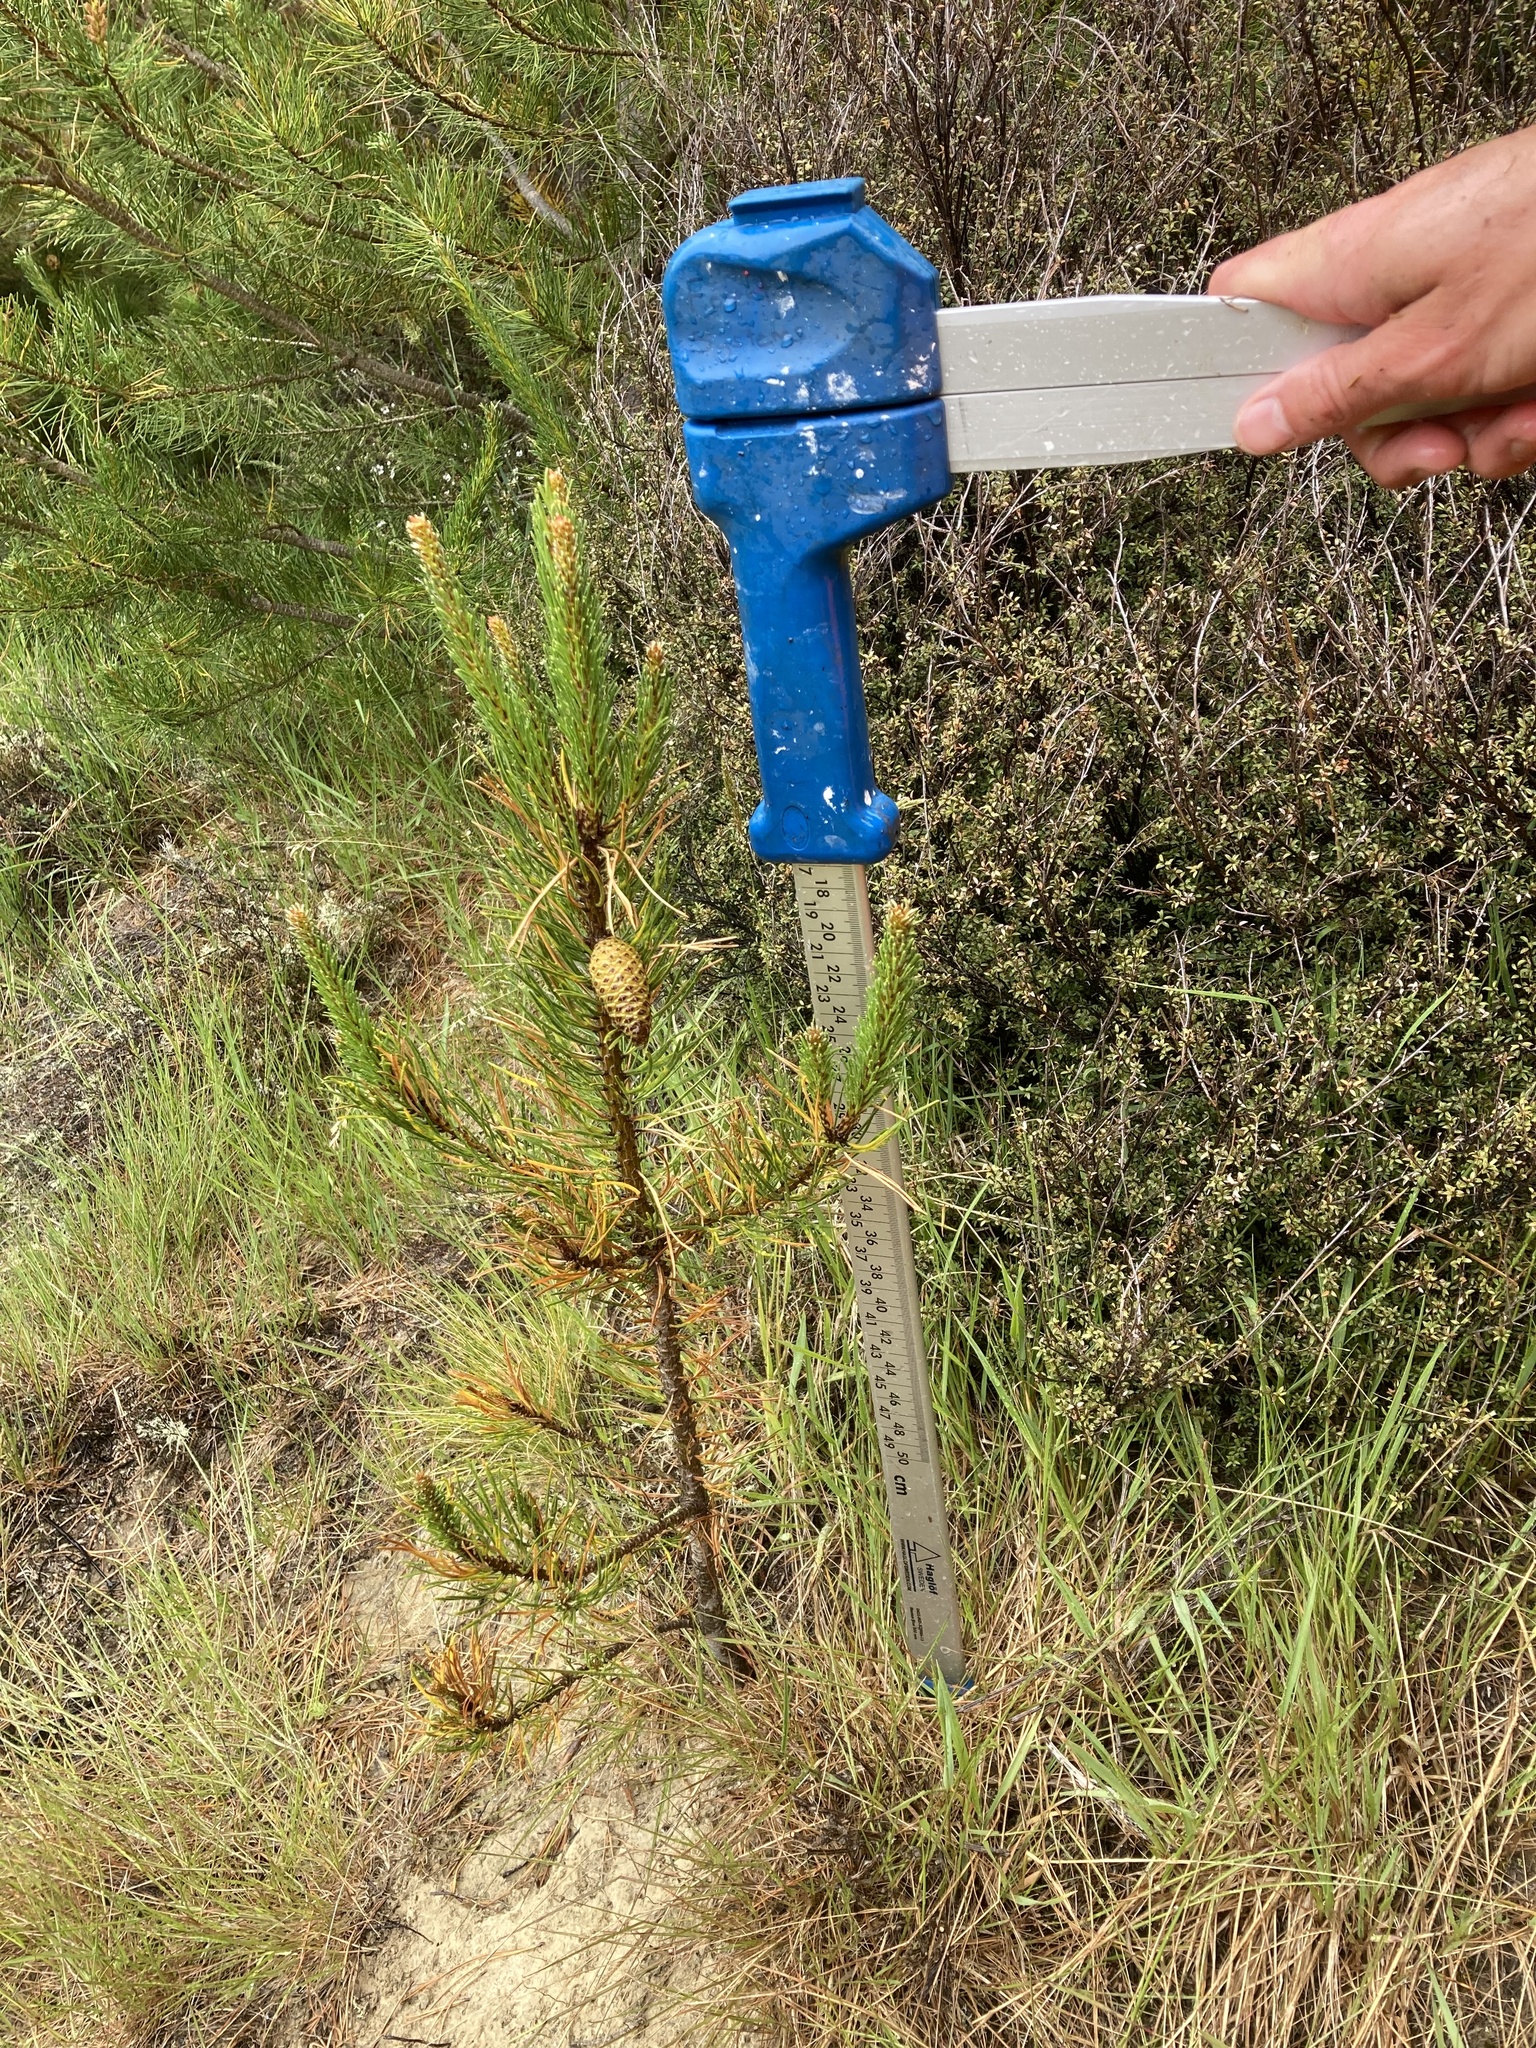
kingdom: Plantae
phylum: Tracheophyta
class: Pinopsida
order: Pinales
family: Pinaceae
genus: Pinus
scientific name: Pinus contorta
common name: Lodgepole pine
